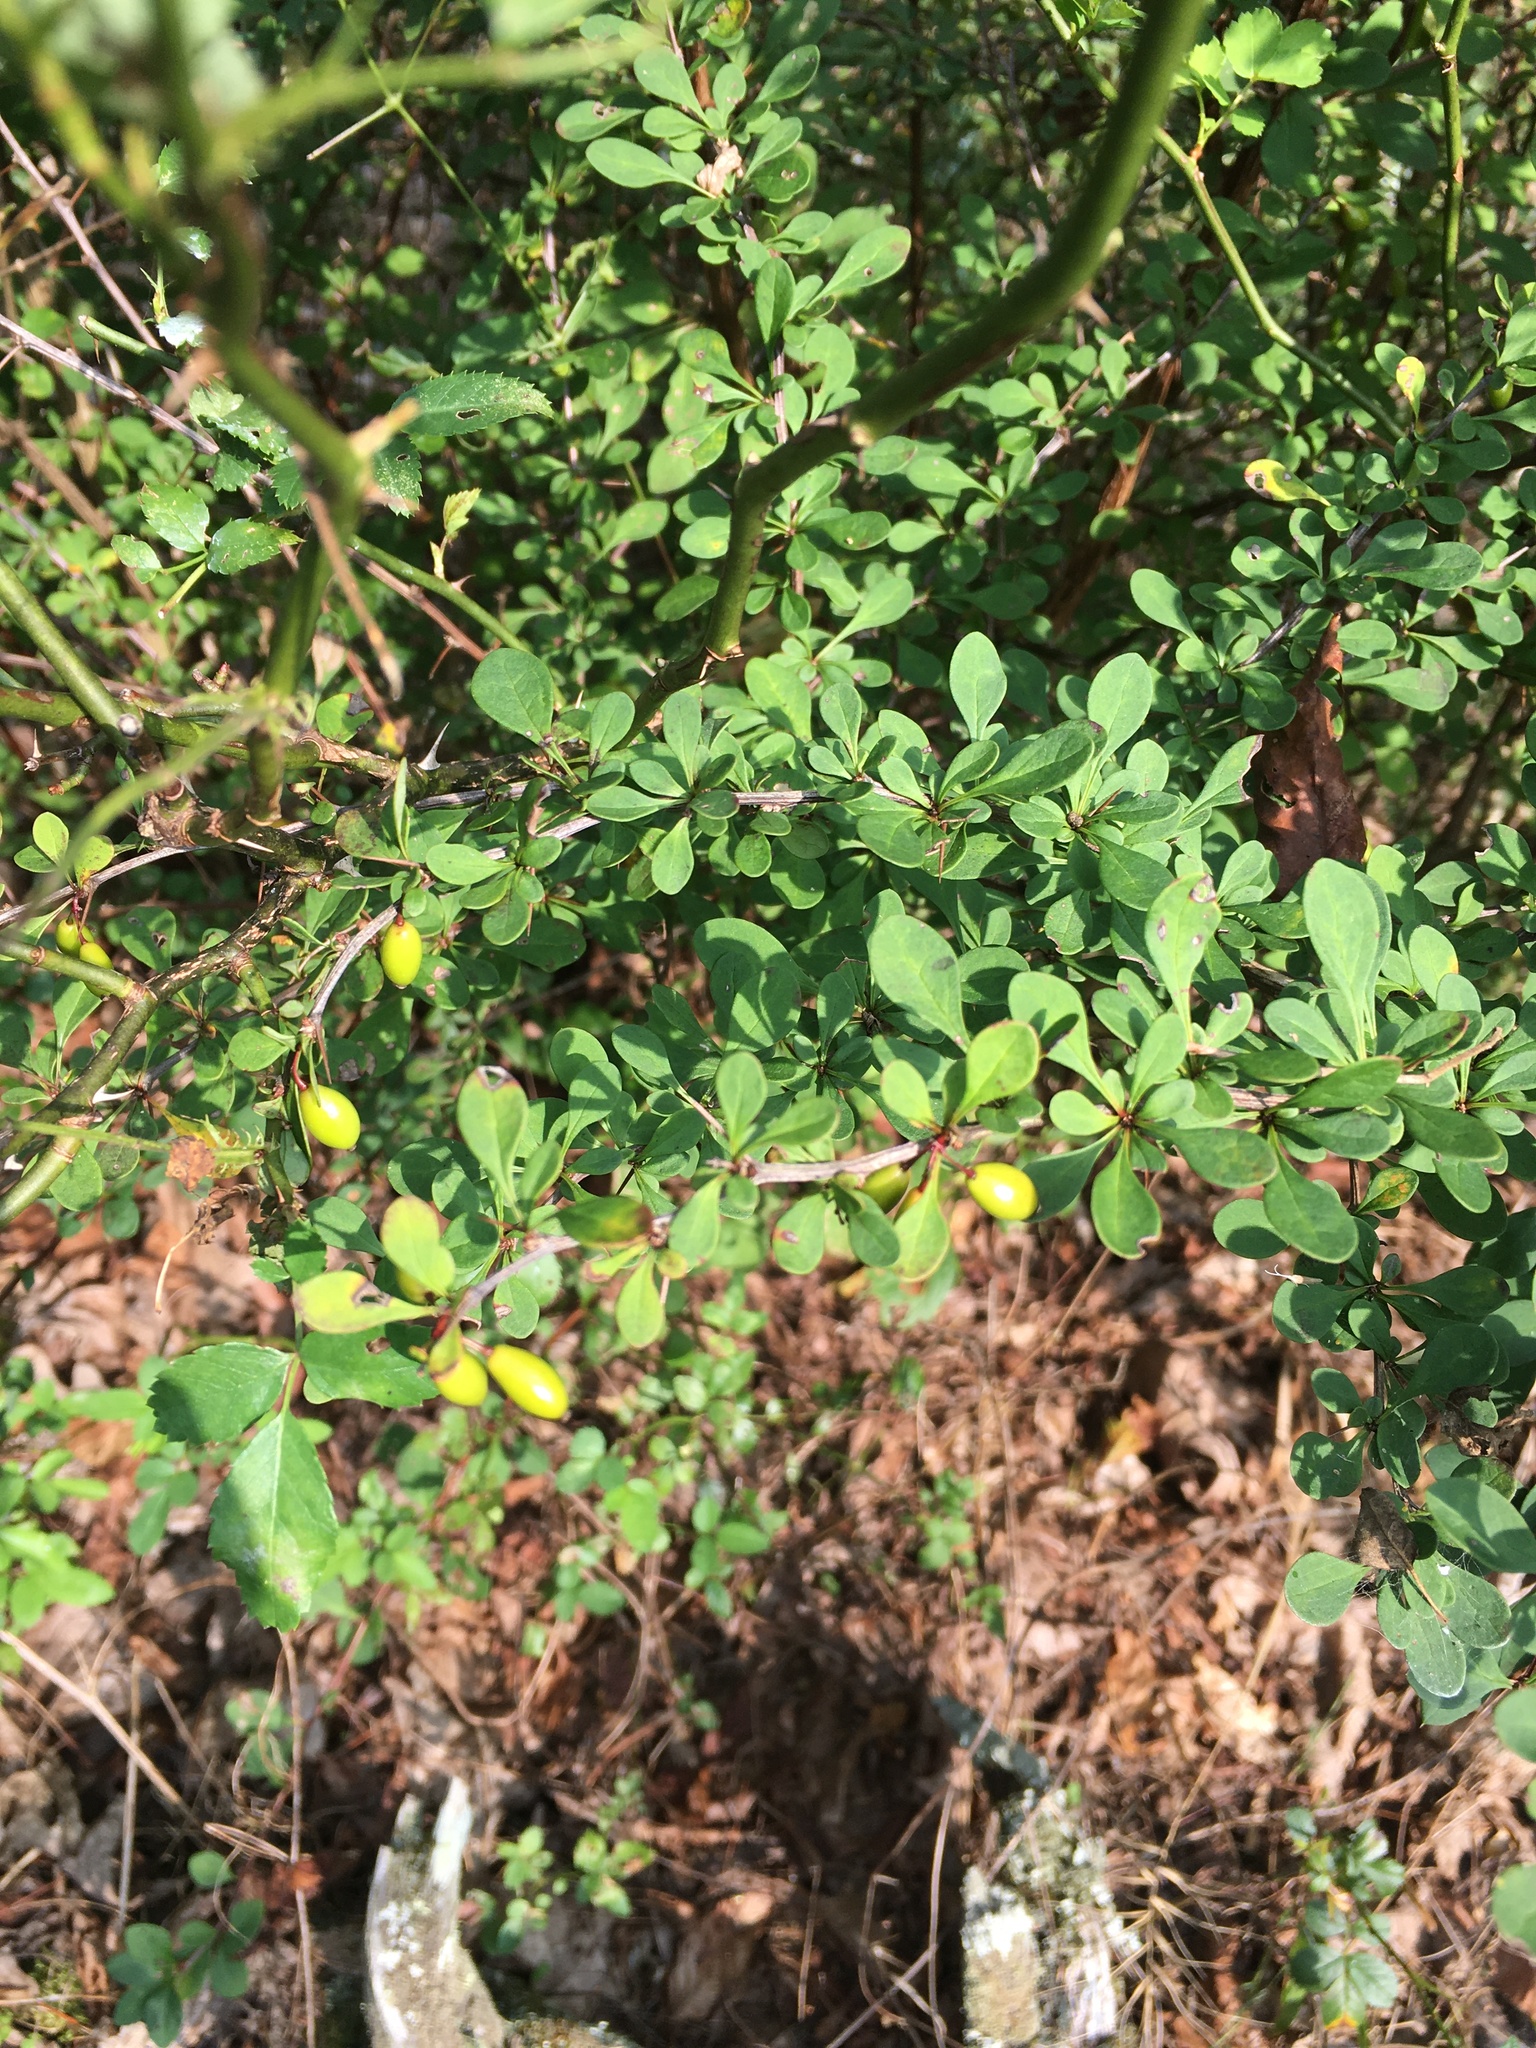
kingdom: Plantae
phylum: Tracheophyta
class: Magnoliopsida
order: Ranunculales
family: Berberidaceae
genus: Berberis
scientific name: Berberis thunbergii
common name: Japanese barberry
